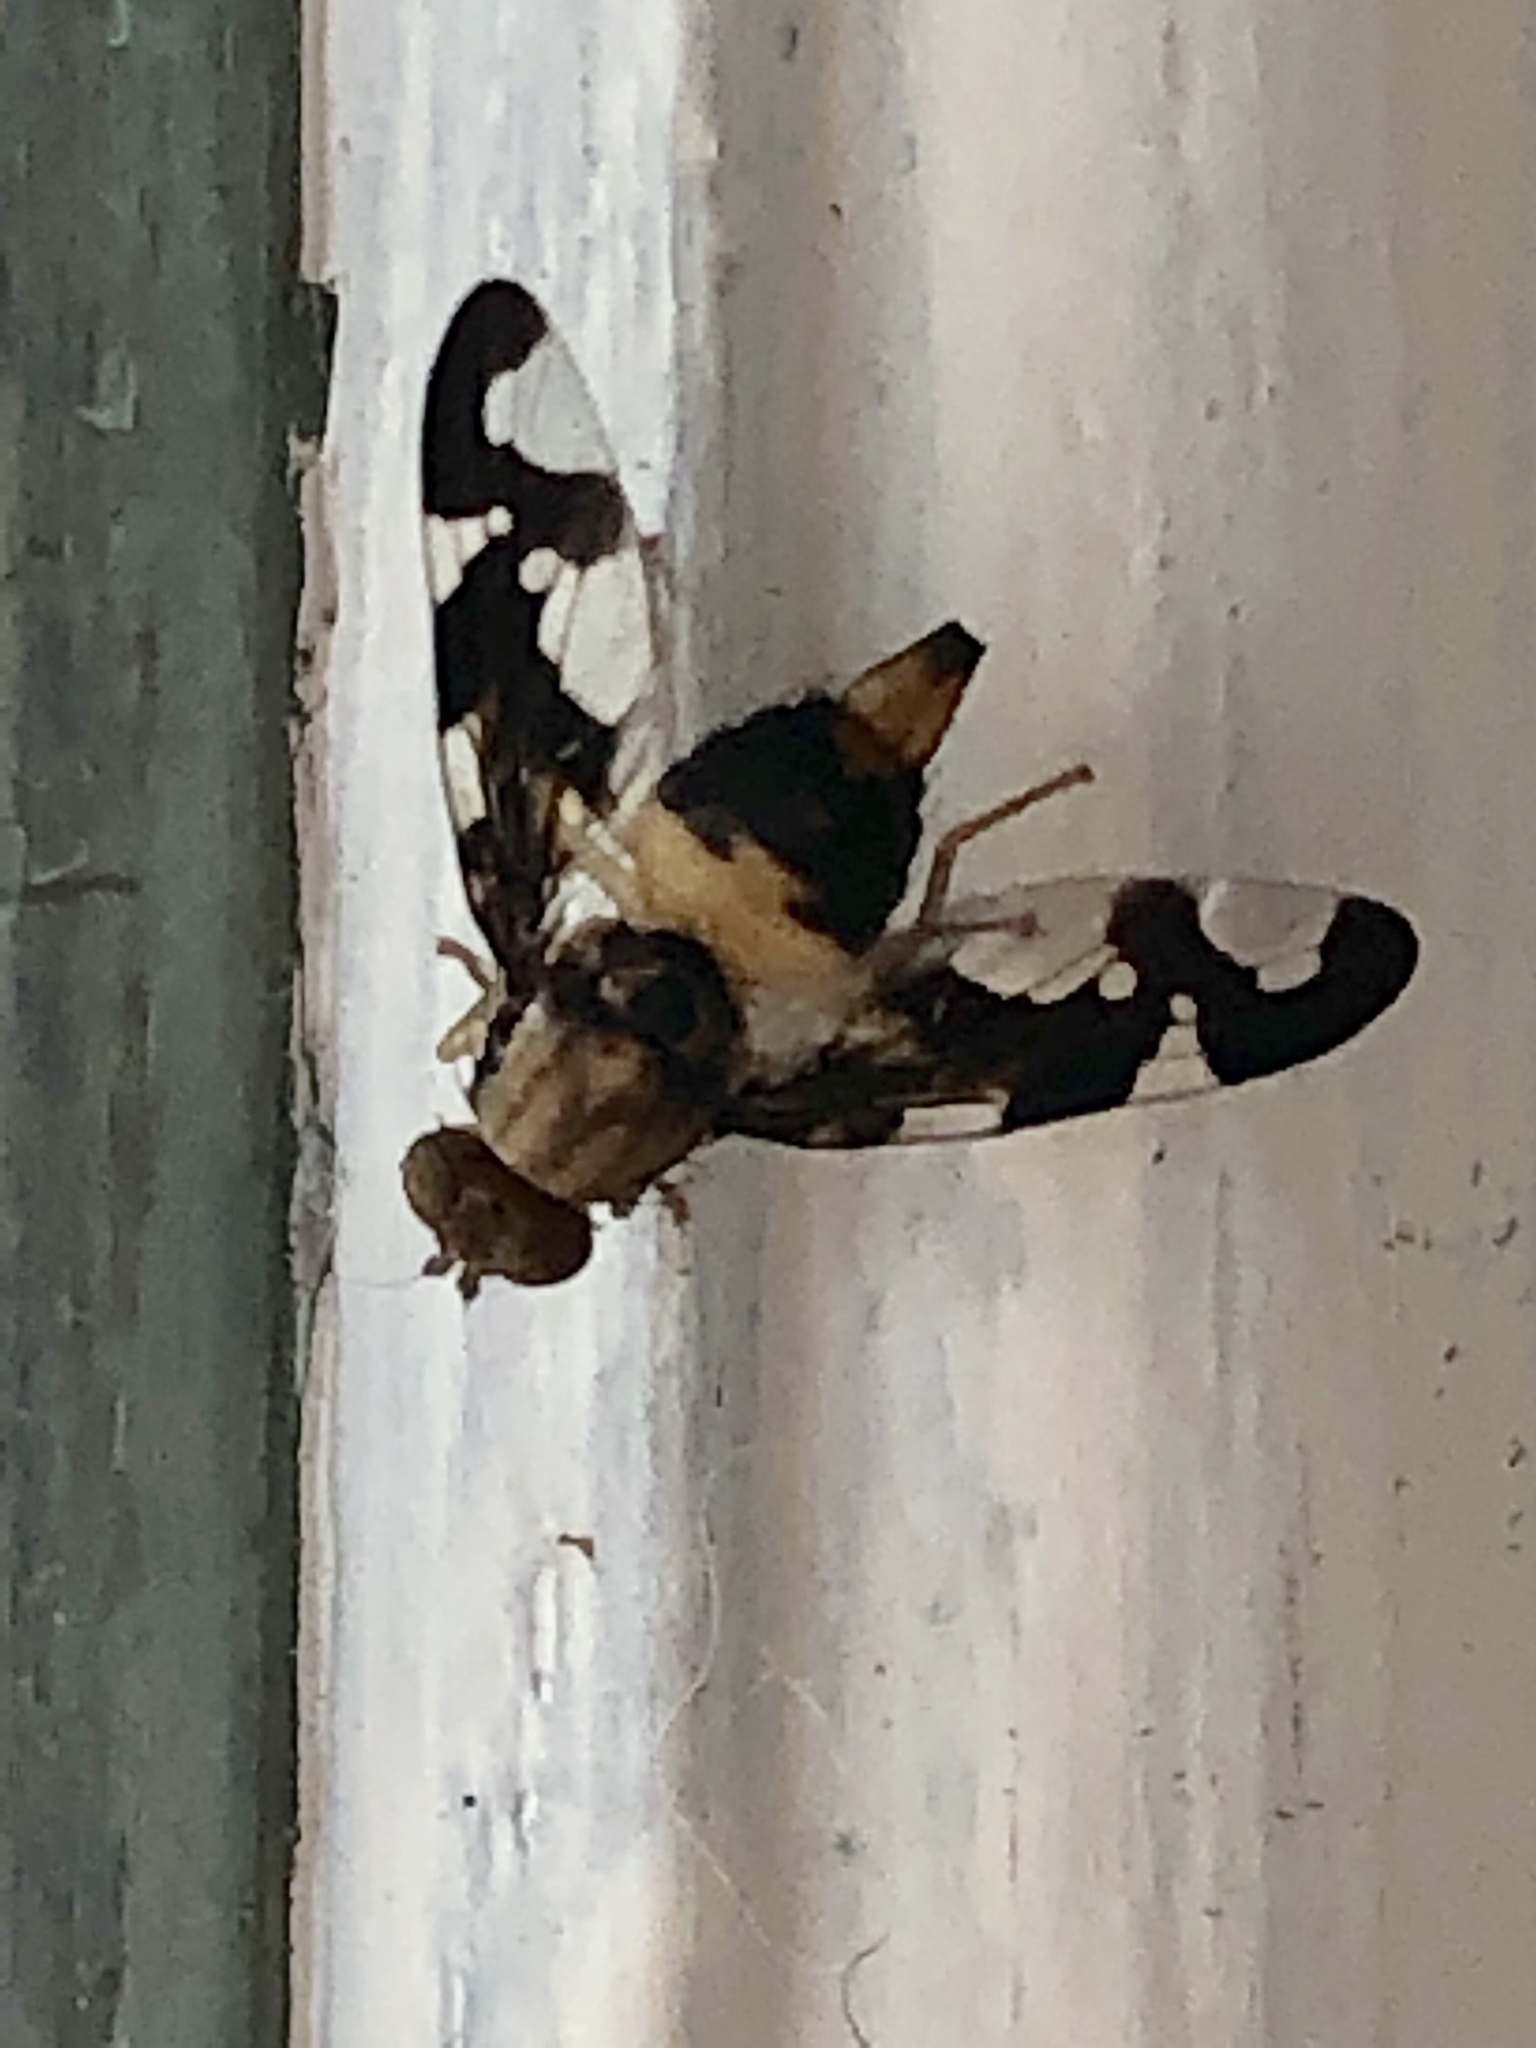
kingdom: Animalia
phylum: Arthropoda
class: Insecta
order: Diptera
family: Tephritidae
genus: Afrocneros
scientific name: Afrocneros excellens
